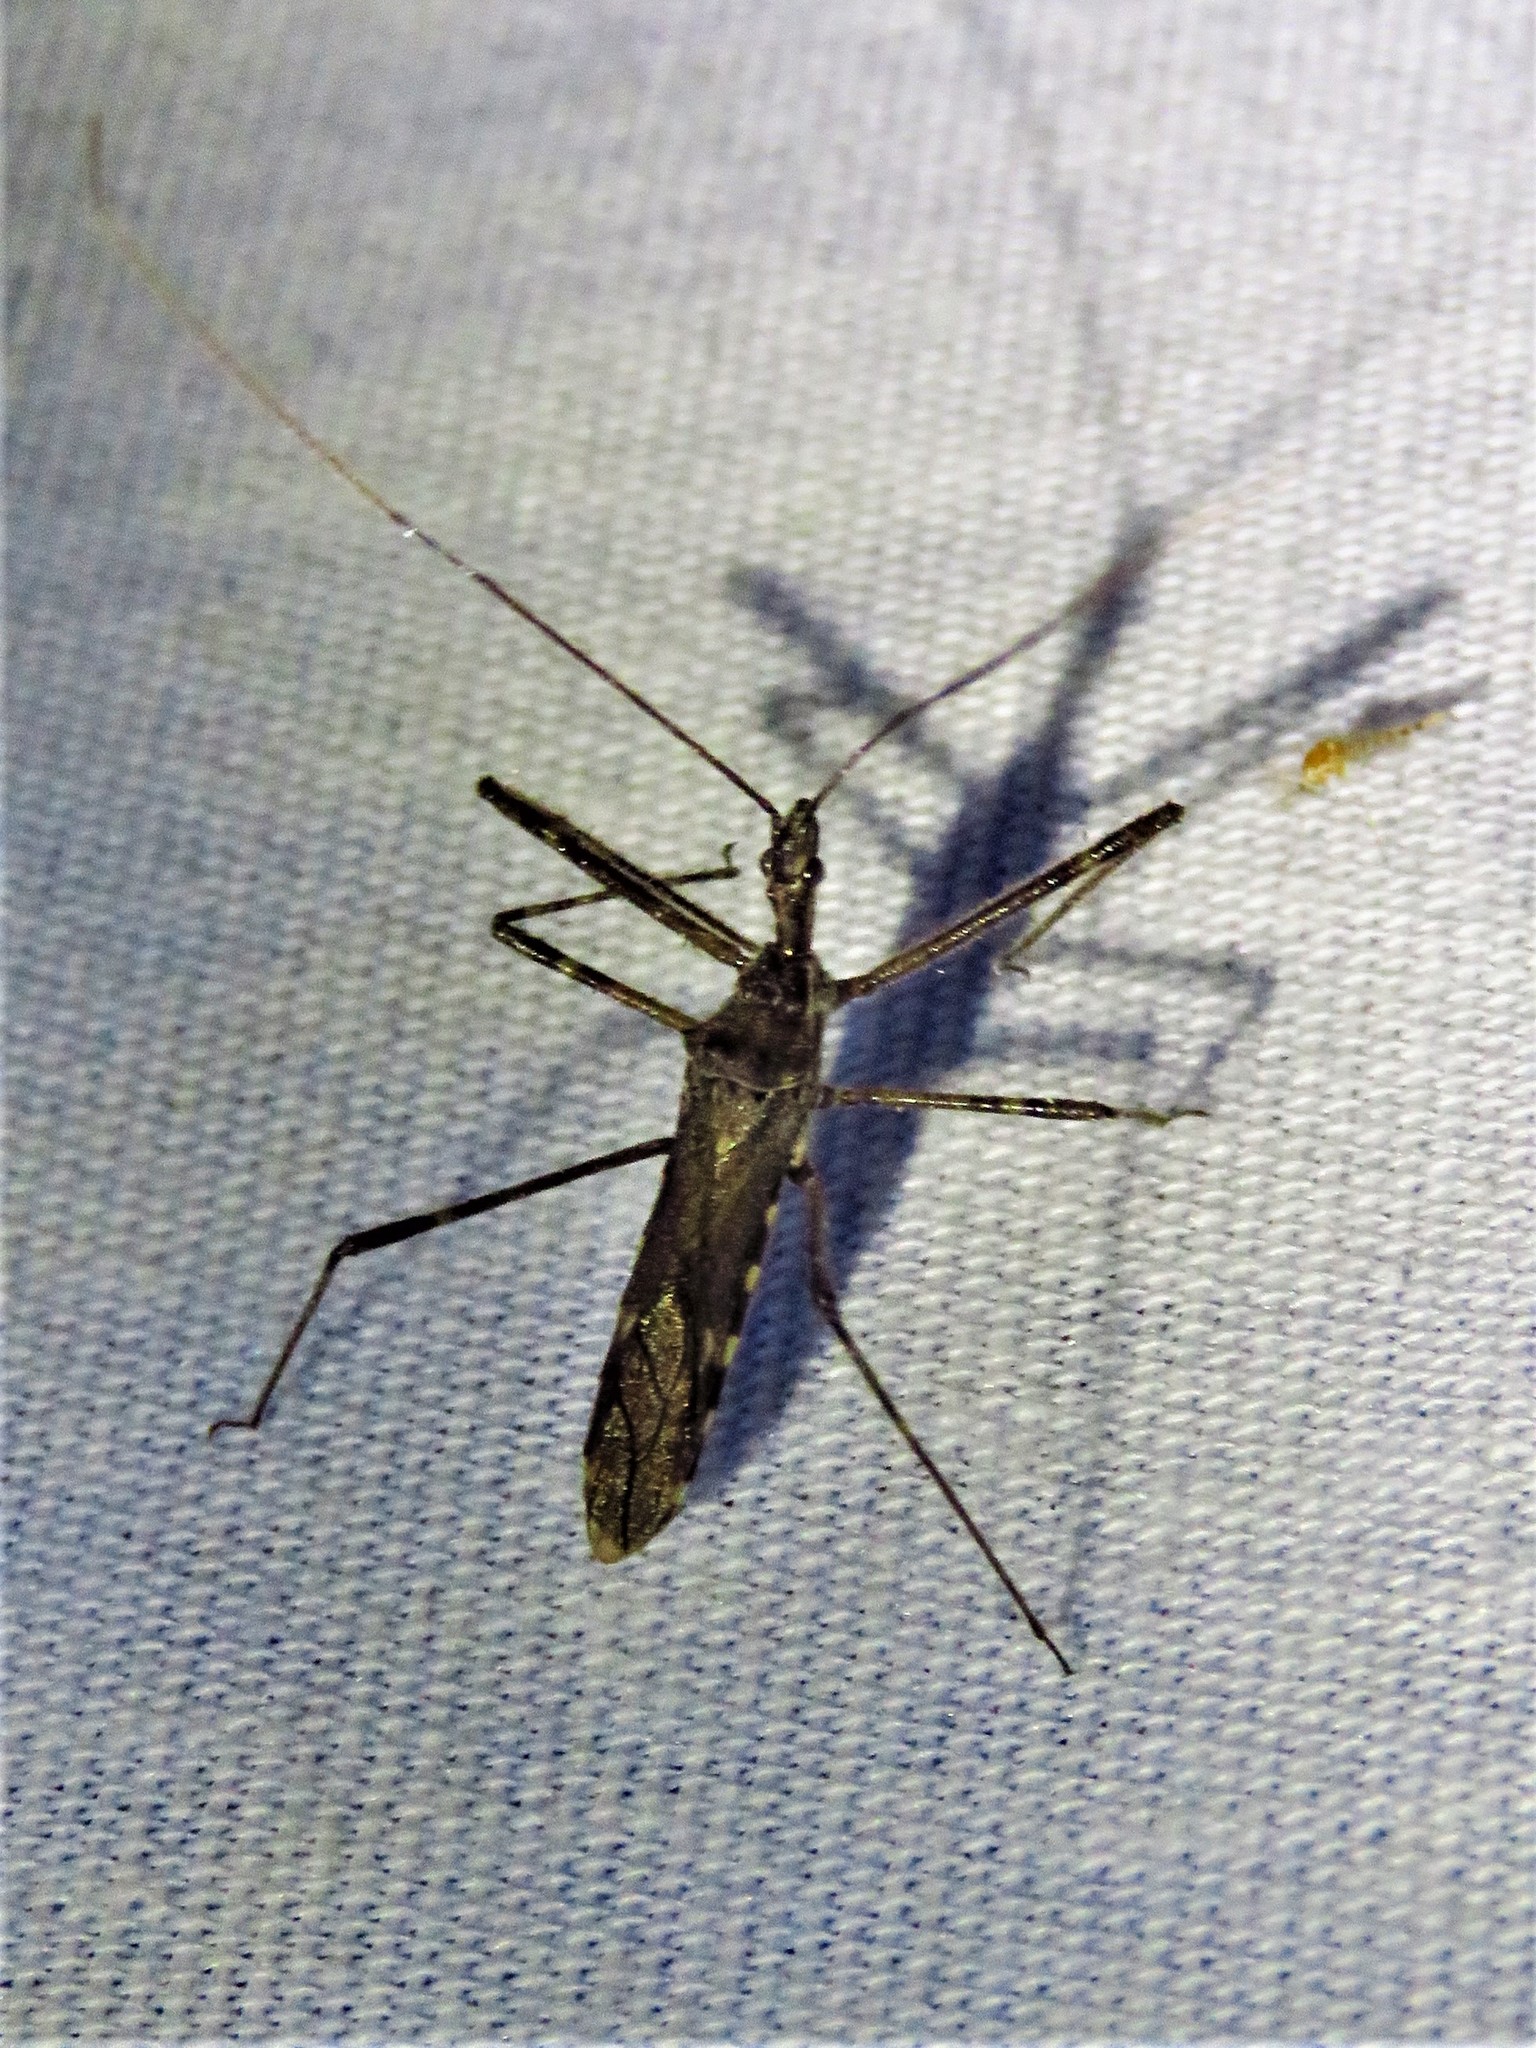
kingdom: Animalia
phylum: Arthropoda
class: Insecta
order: Hemiptera
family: Reduviidae
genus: Zelus
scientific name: Zelus tetracanthus
